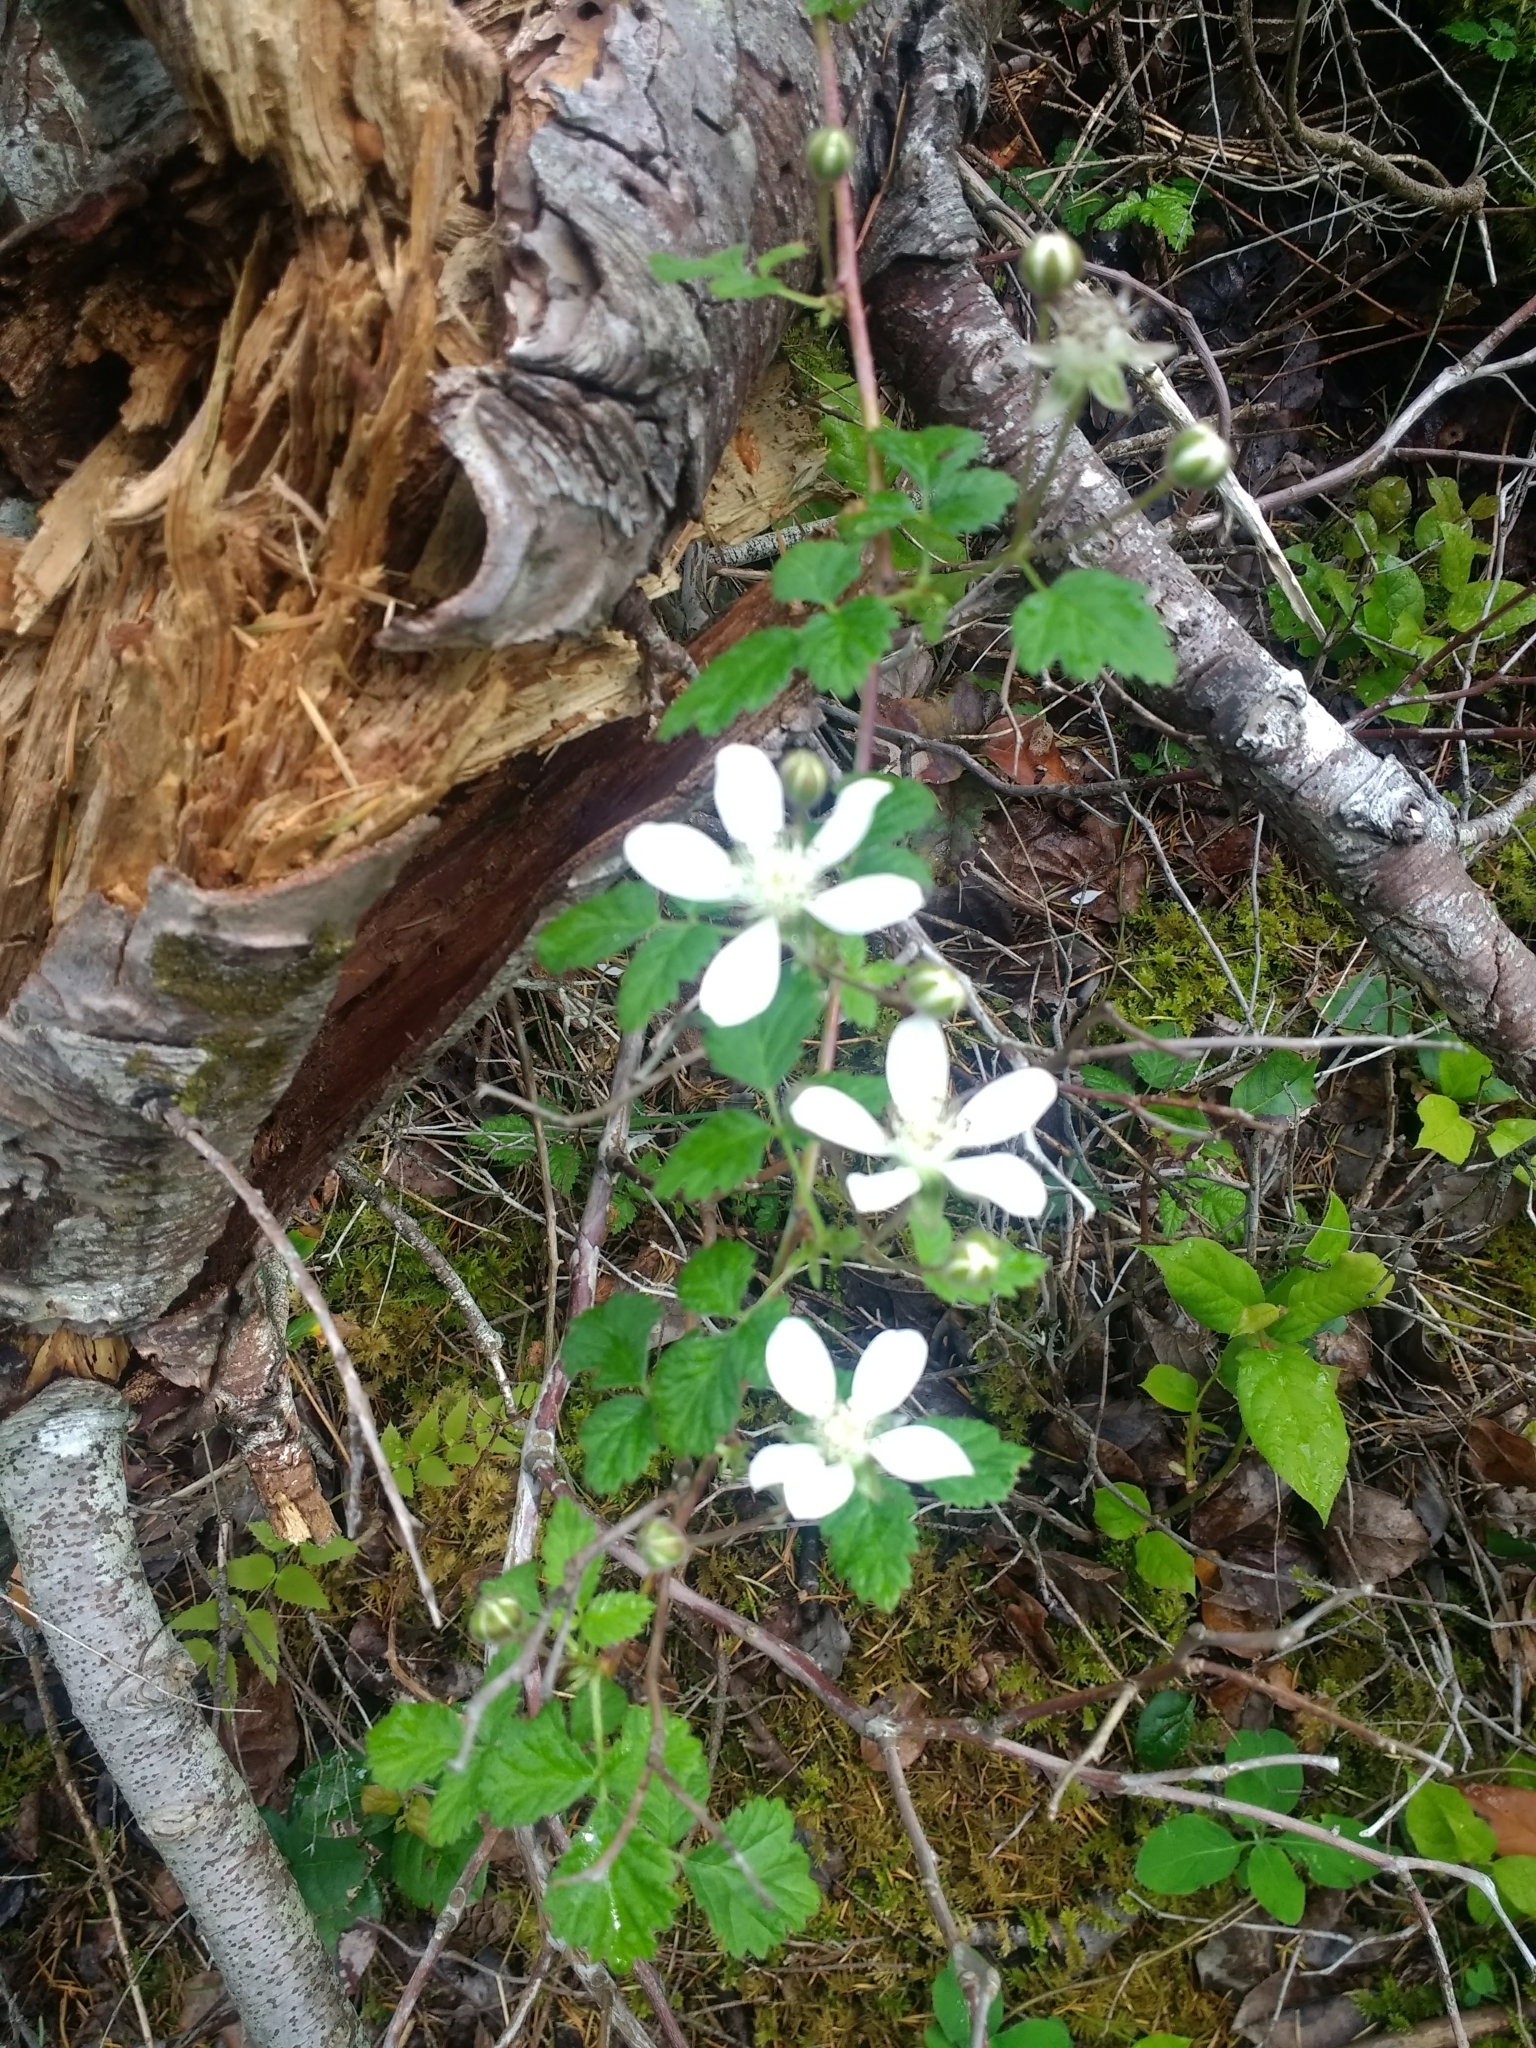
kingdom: Plantae
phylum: Tracheophyta
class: Magnoliopsida
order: Rosales
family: Rosaceae
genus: Rubus
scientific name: Rubus ursinus
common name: Pacific blackberry
